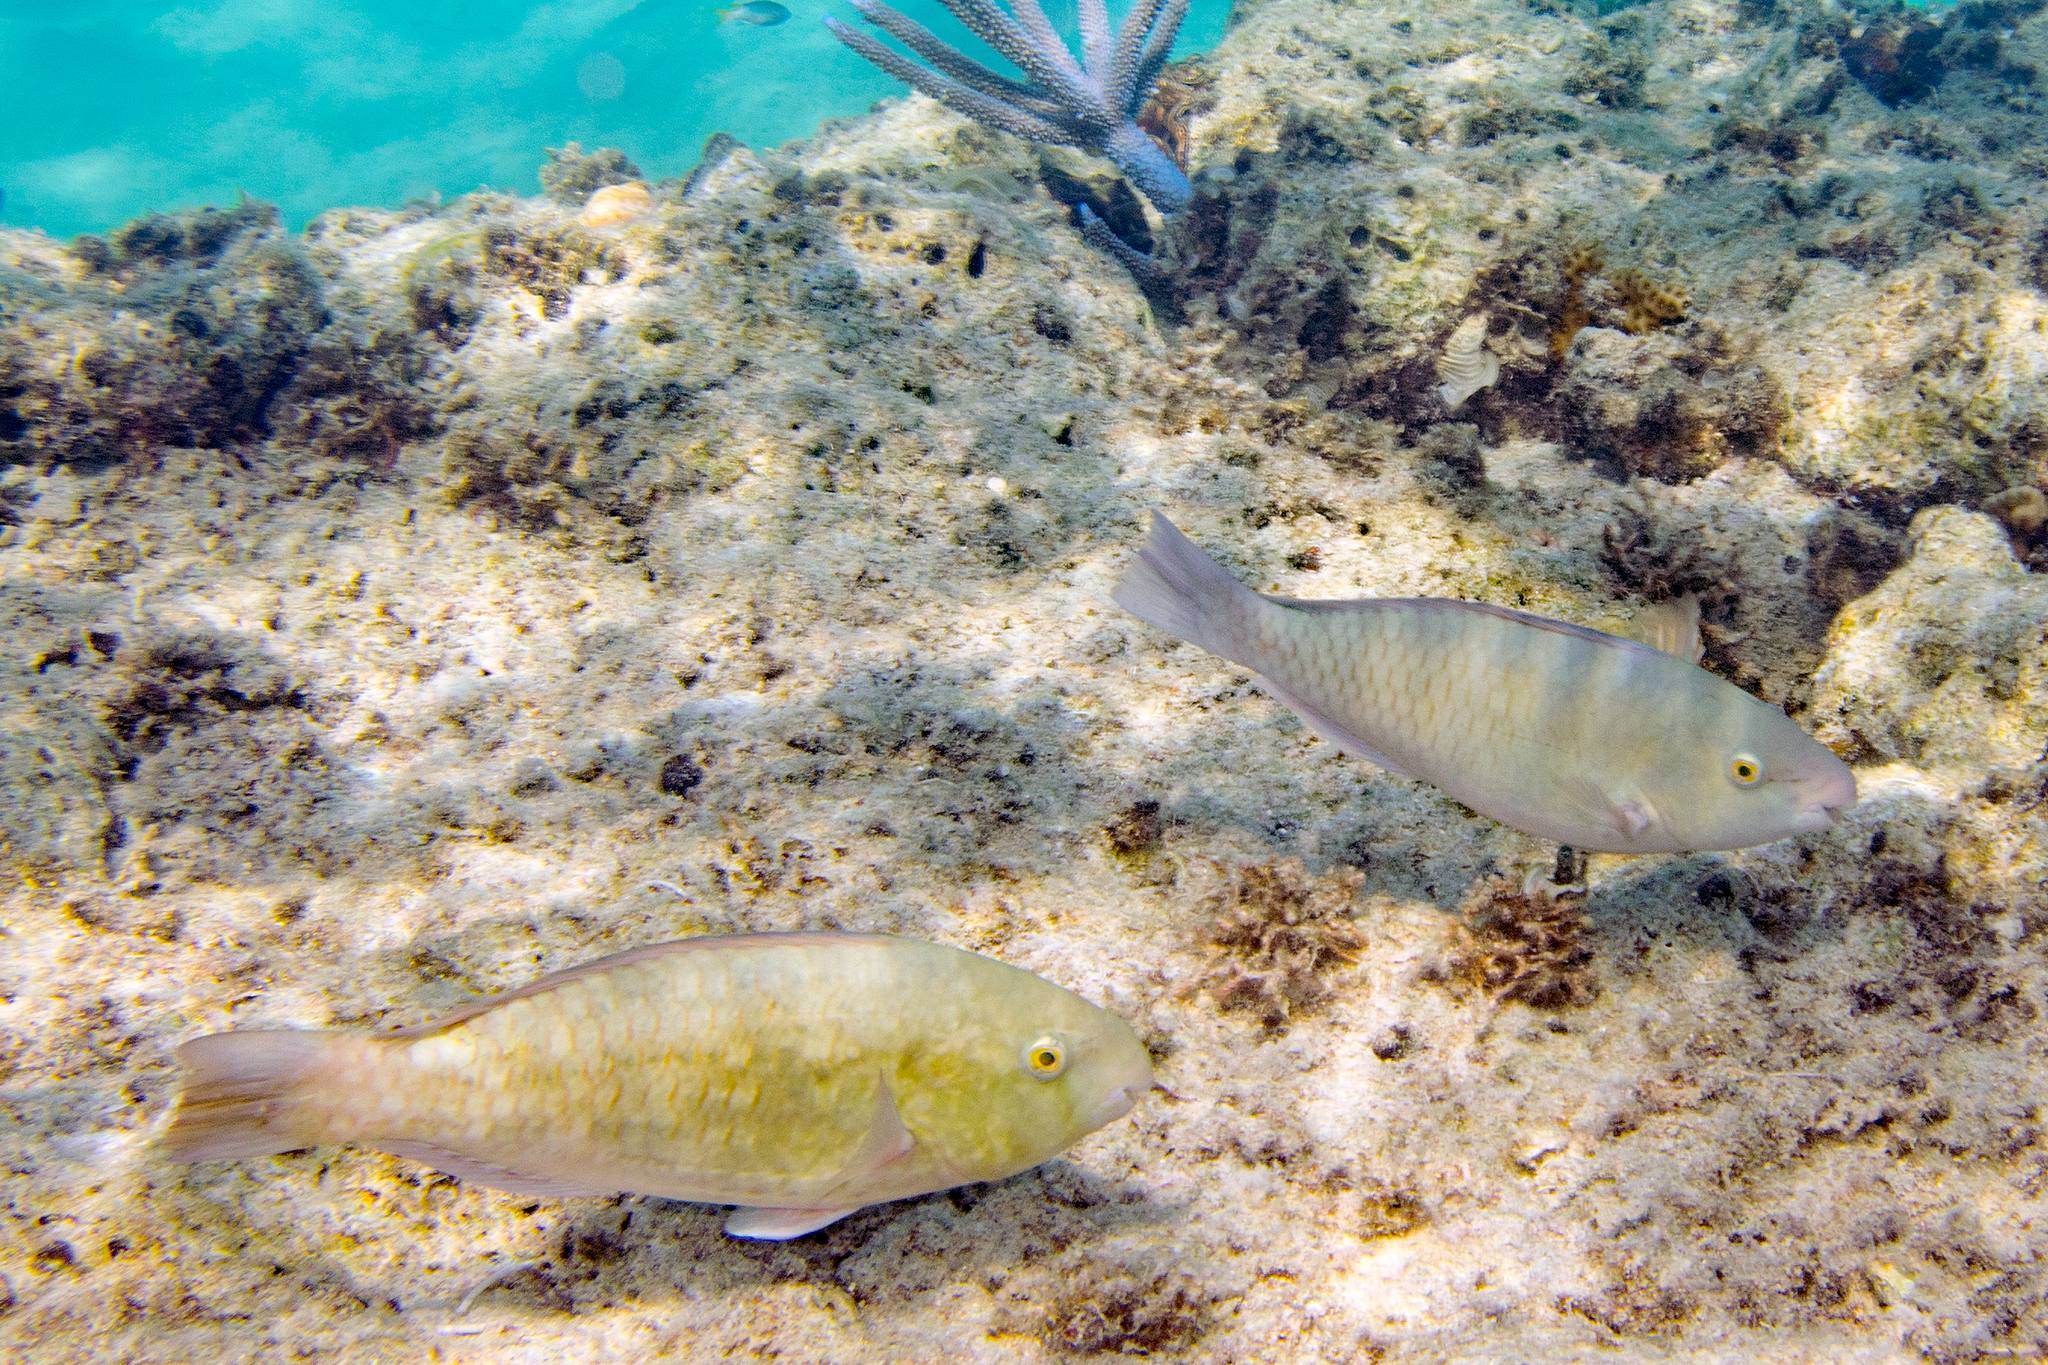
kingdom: Animalia
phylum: Chordata
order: Perciformes
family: Scaridae
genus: Scarus
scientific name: Scarus globiceps
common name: Globehead parrotfish
